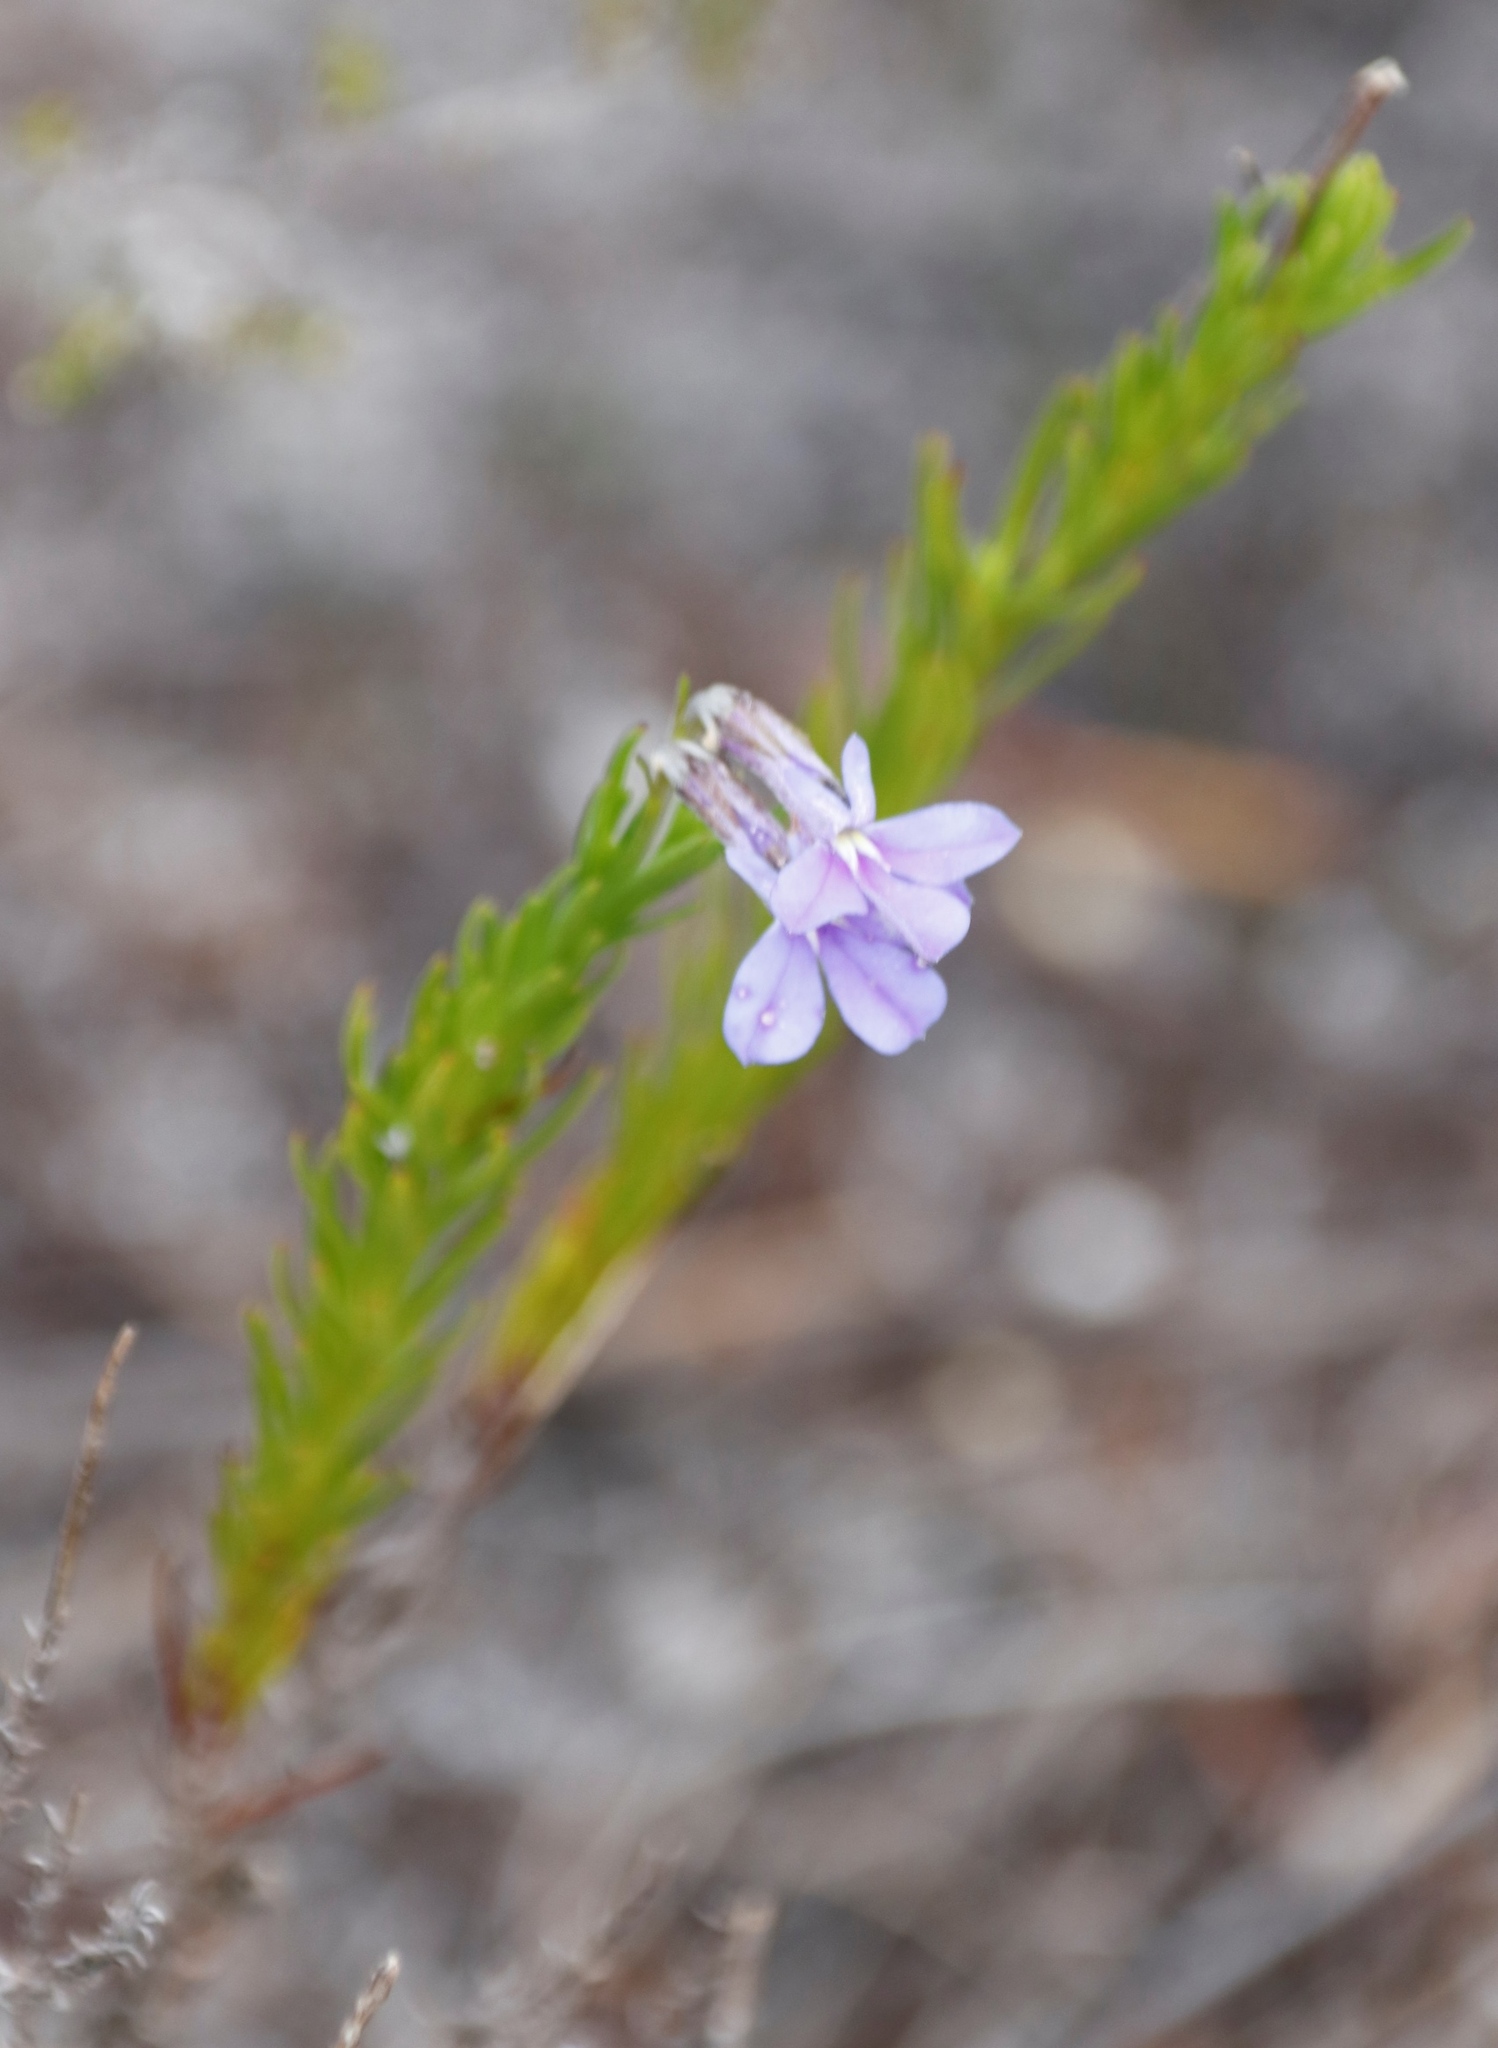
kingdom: Plantae
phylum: Tracheophyta
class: Magnoliopsida
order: Asterales
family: Campanulaceae
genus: Lobelia
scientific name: Lobelia pinifolia
